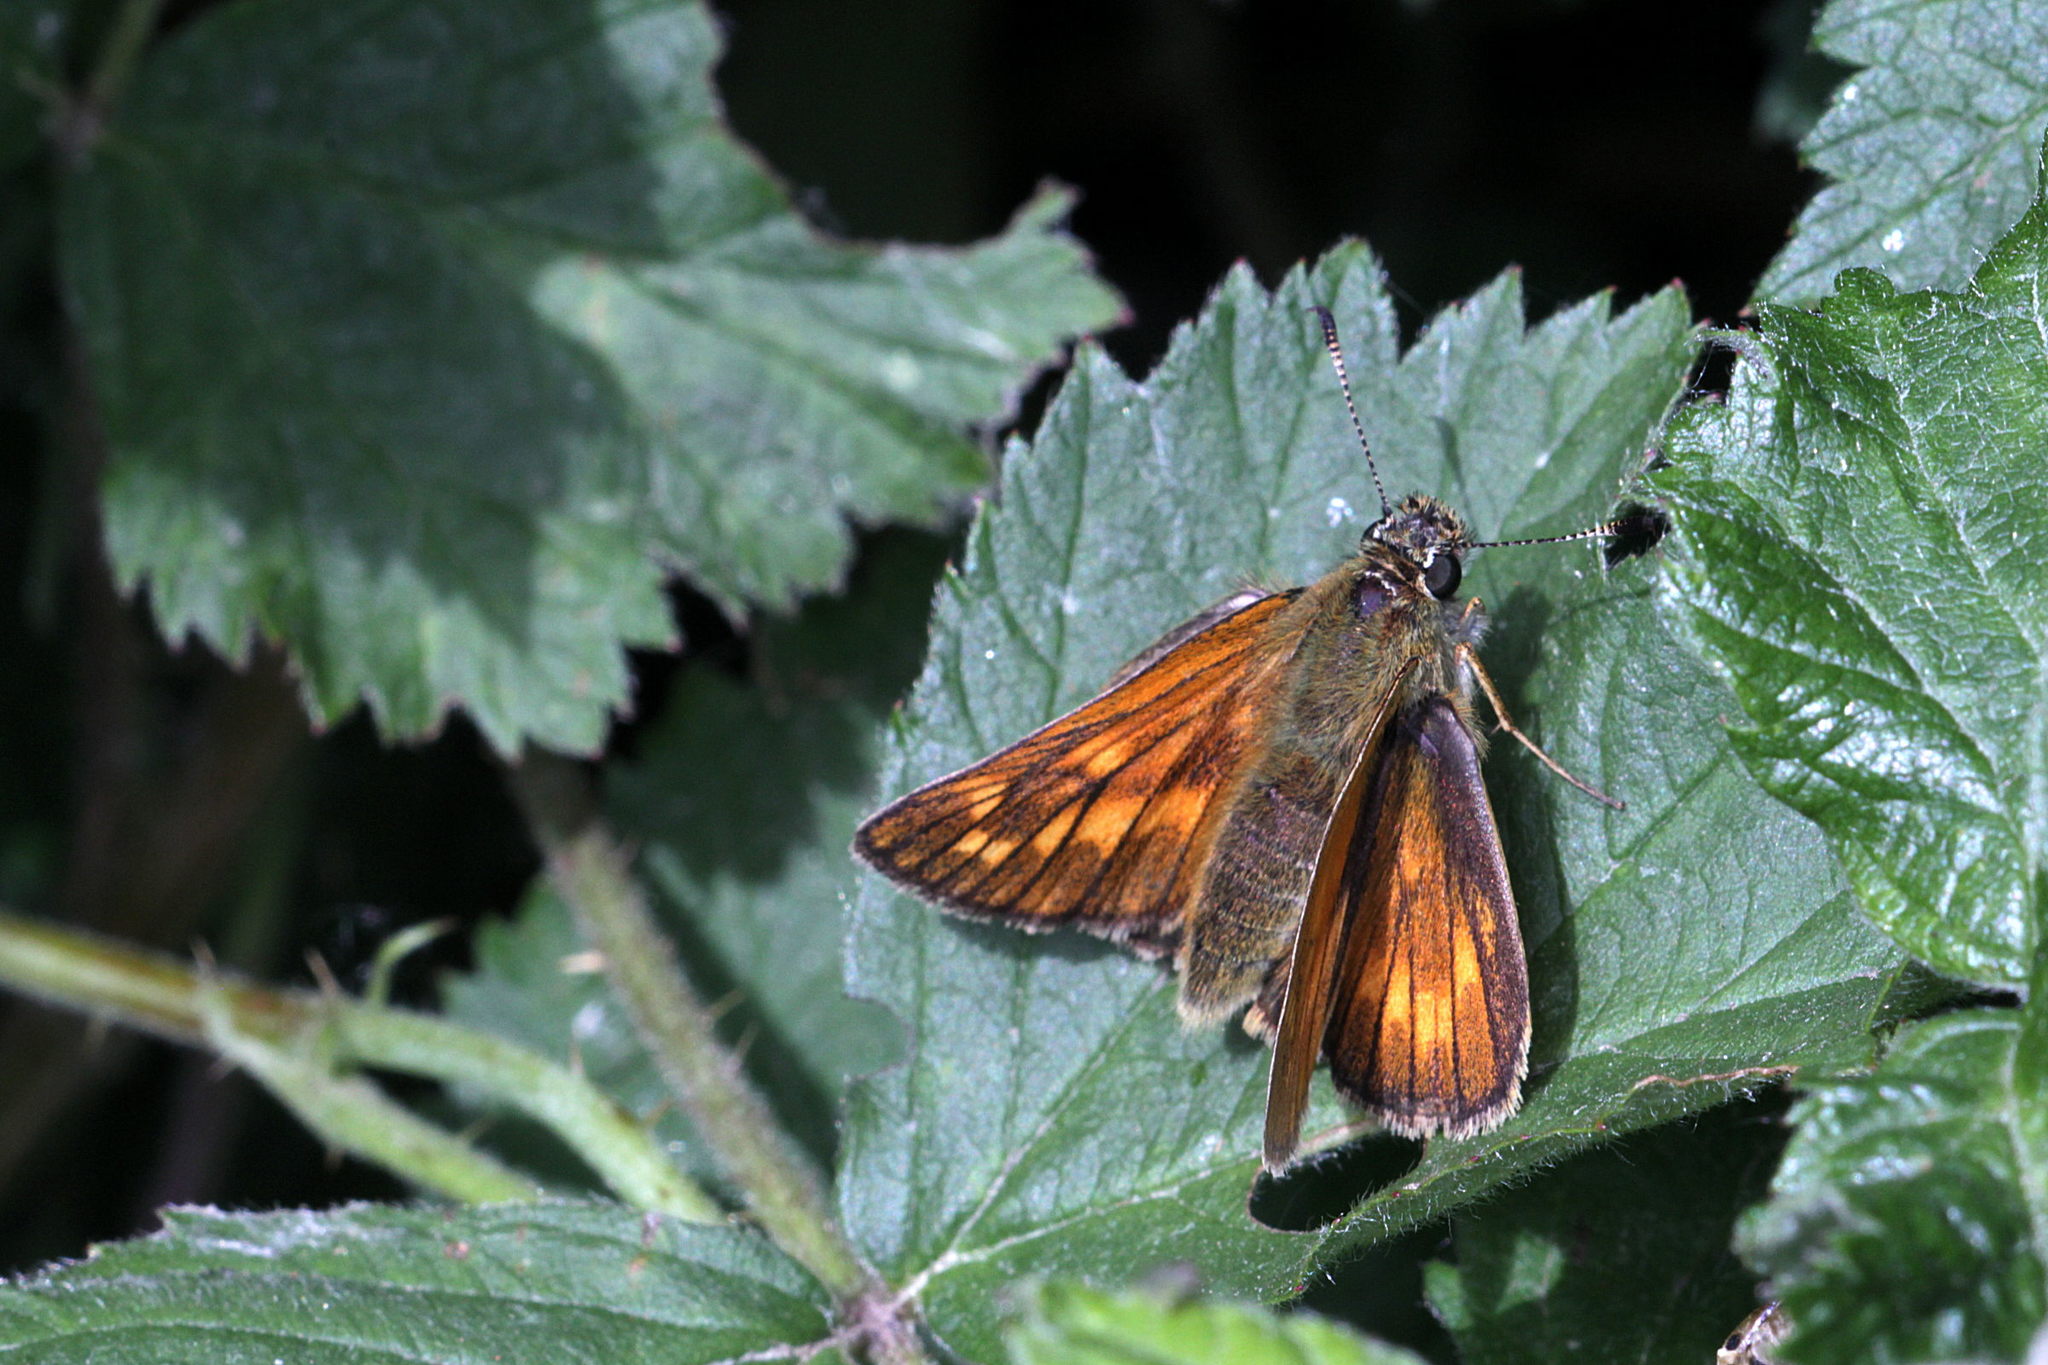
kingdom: Animalia
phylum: Arthropoda
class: Insecta
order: Lepidoptera
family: Hesperiidae
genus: Ochlodes
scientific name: Ochlodes venata
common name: Large skipper
